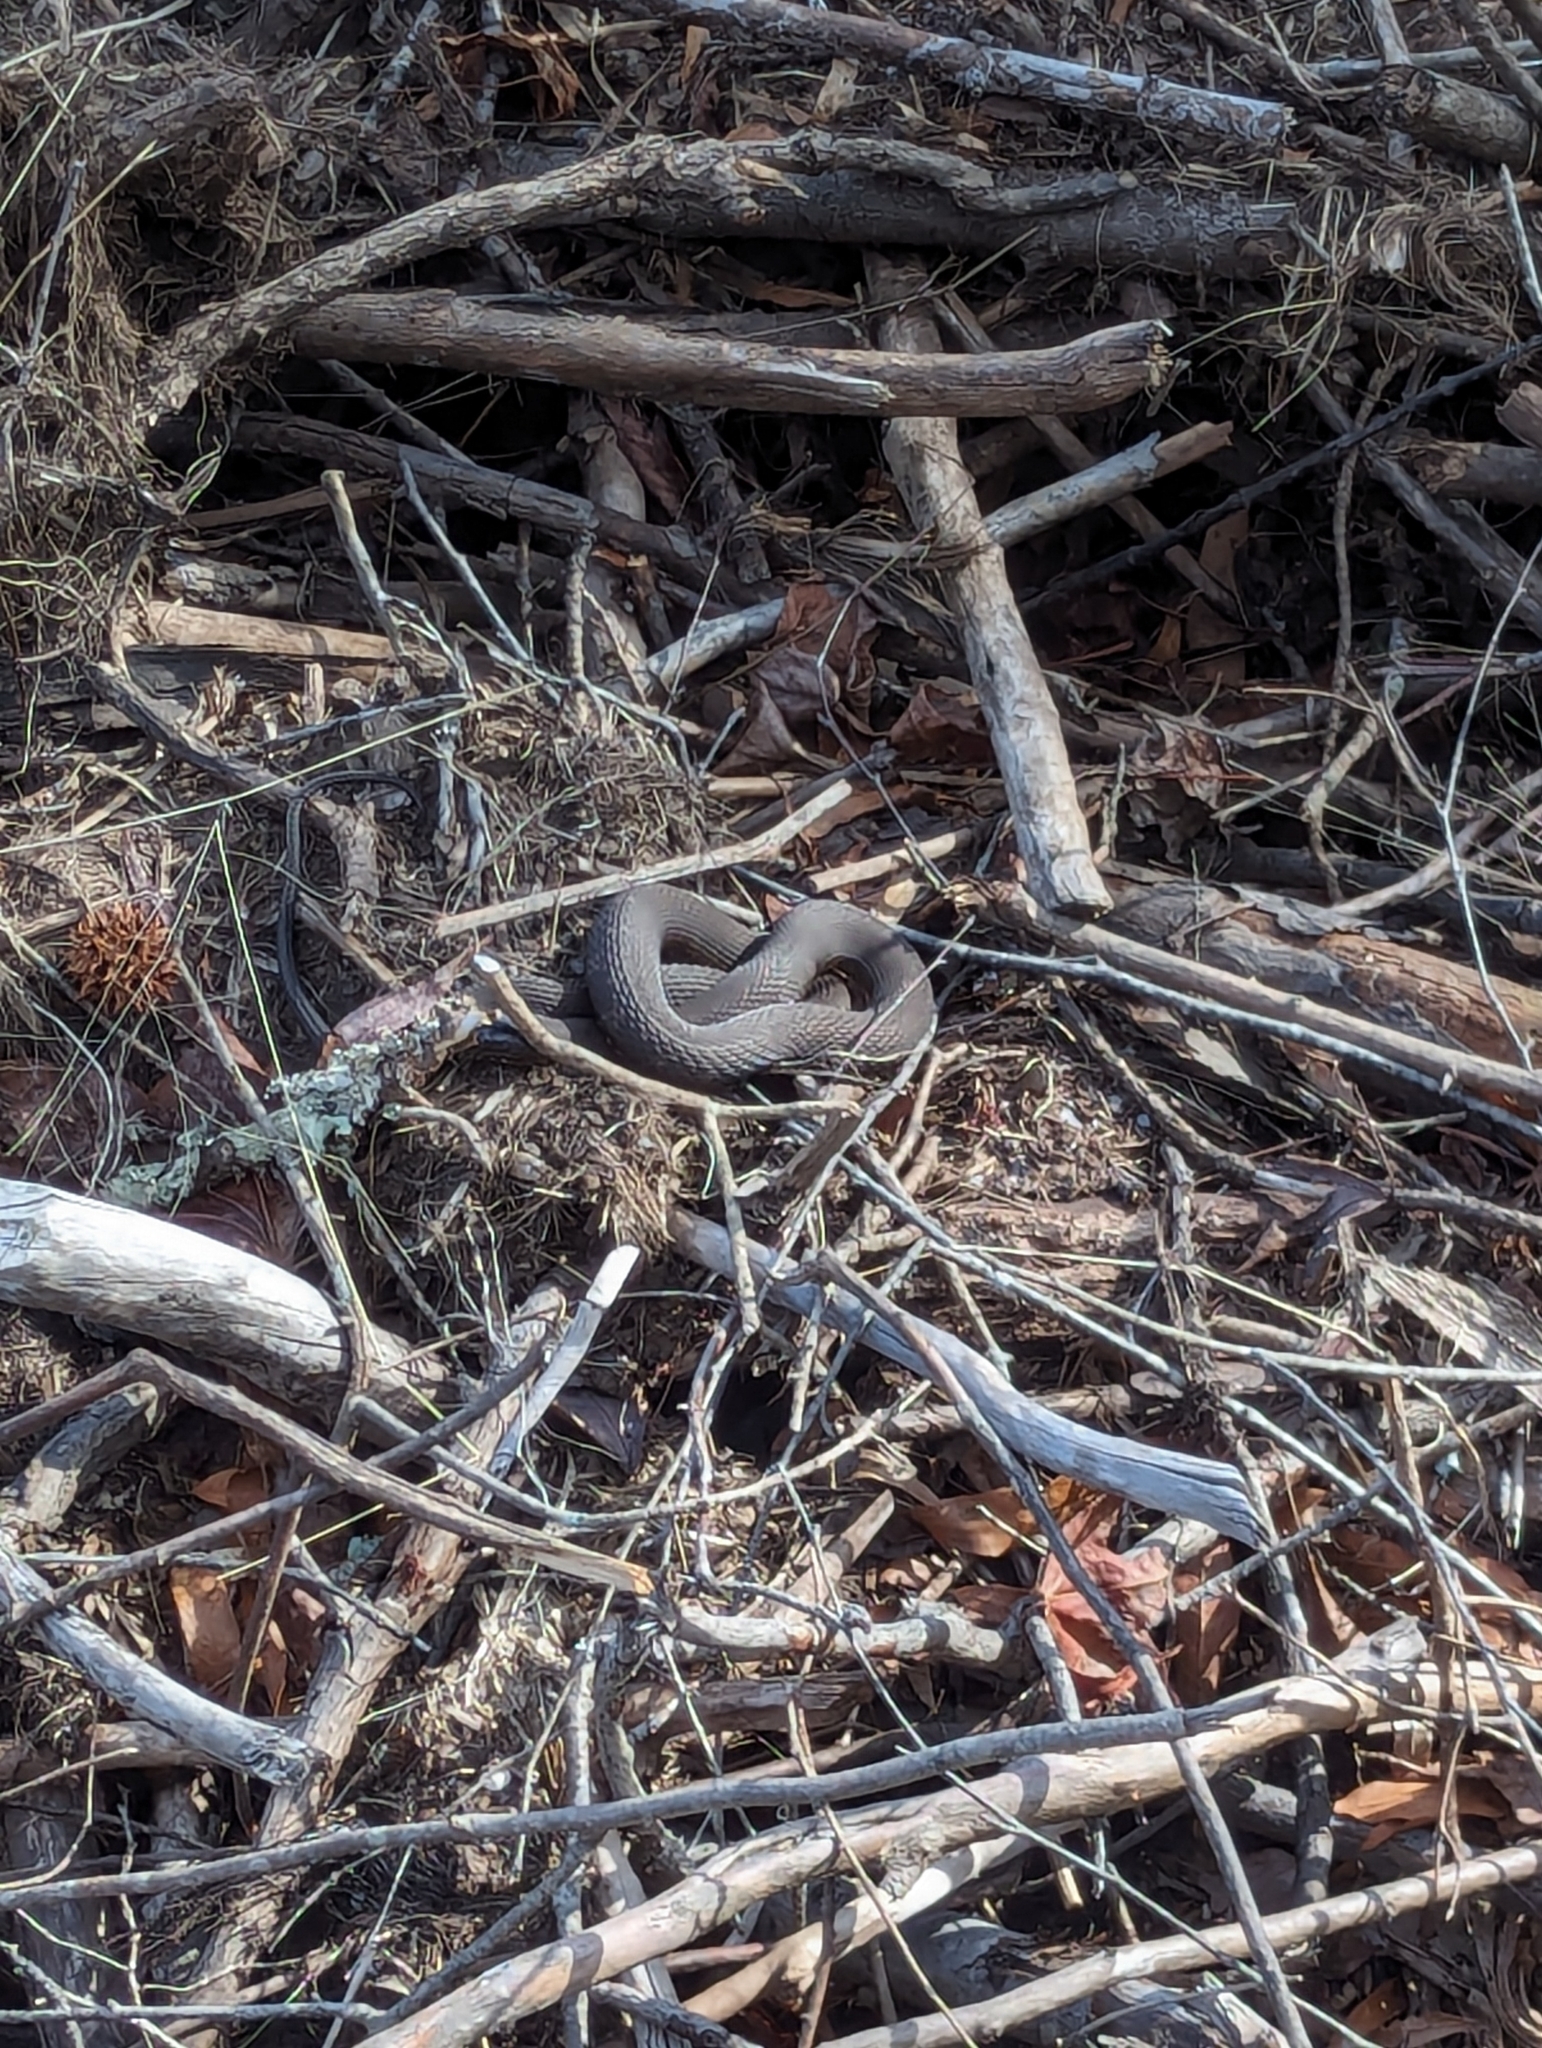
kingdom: Animalia
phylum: Chordata
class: Squamata
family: Colubridae
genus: Nerodia
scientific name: Nerodia sipedon
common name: Northern water snake
